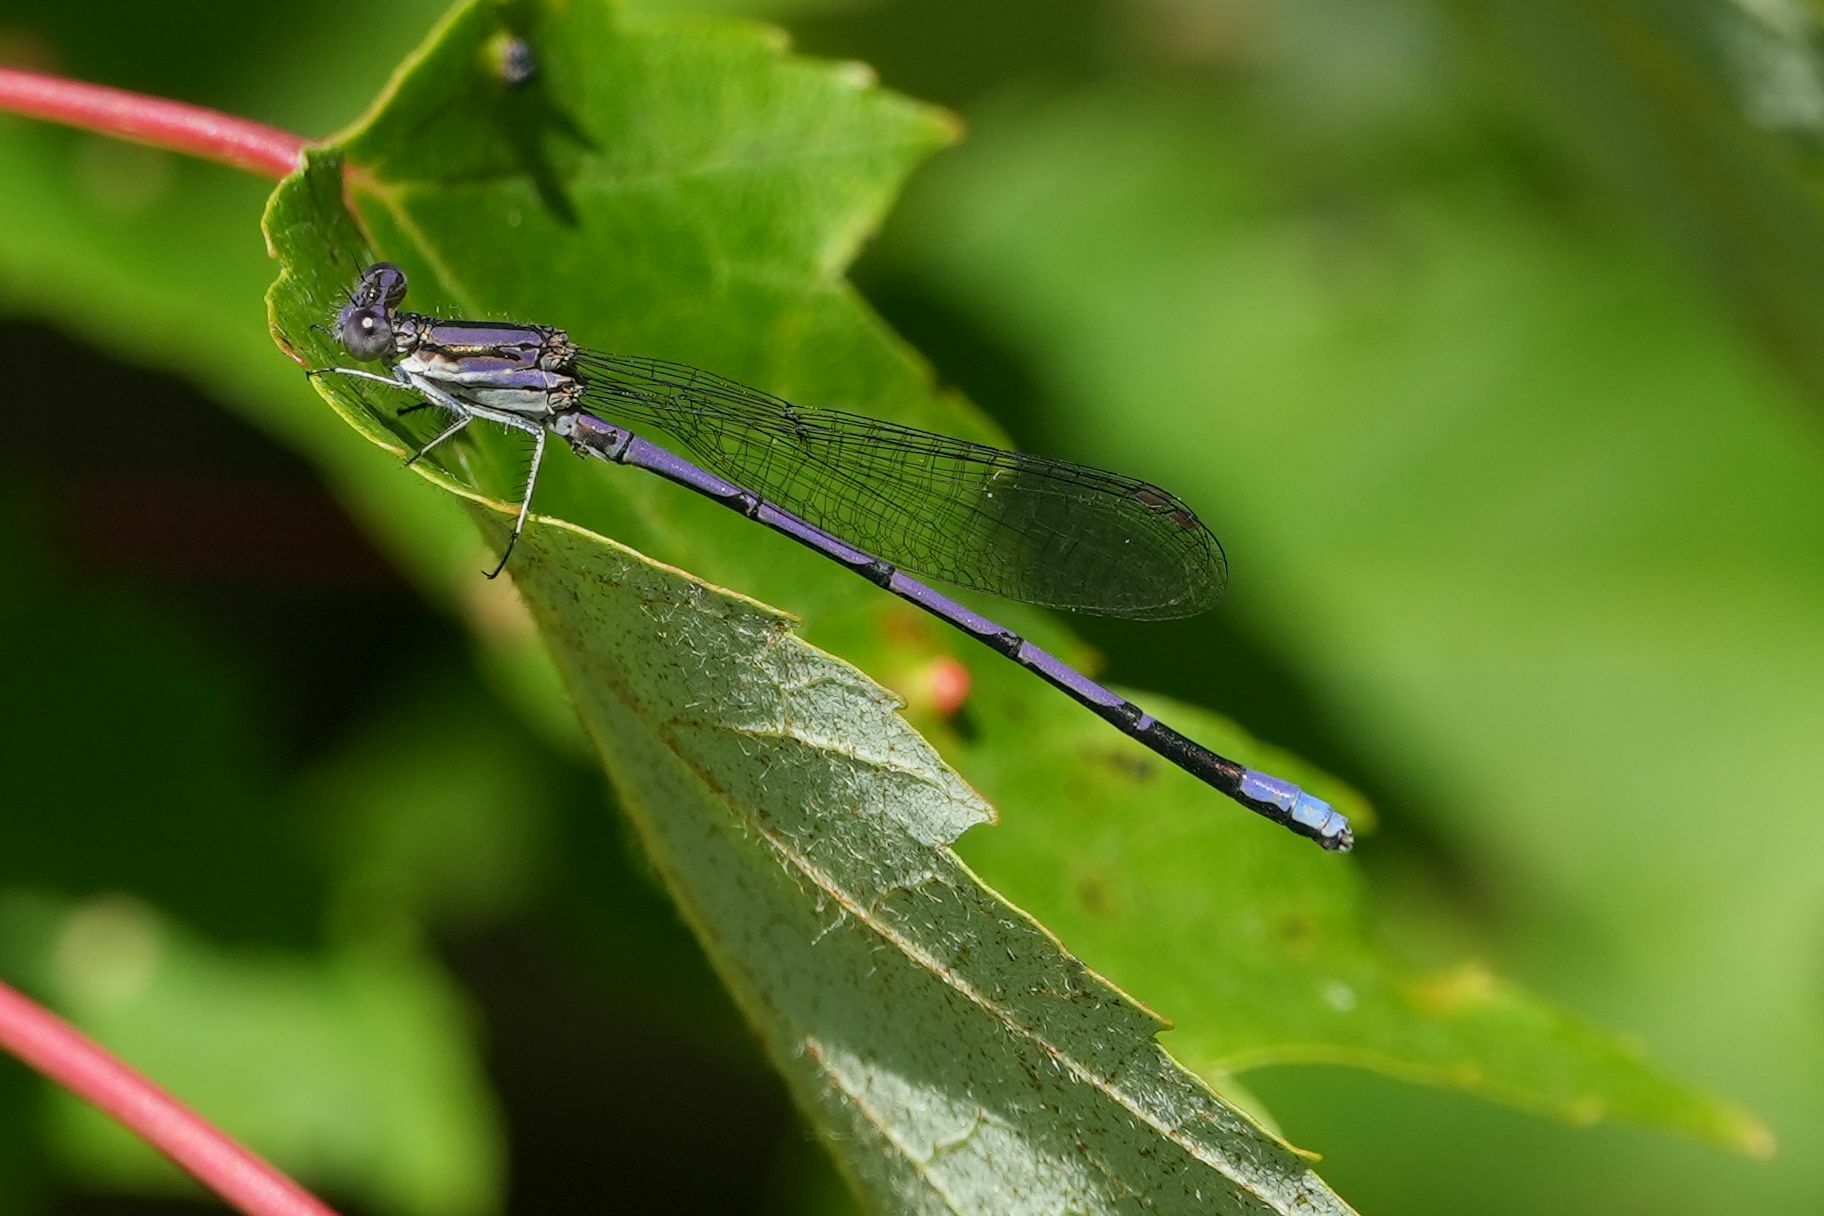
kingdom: Animalia
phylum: Arthropoda
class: Insecta
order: Odonata
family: Coenagrionidae
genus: Argia
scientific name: Argia fumipennis
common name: Variable dancer
